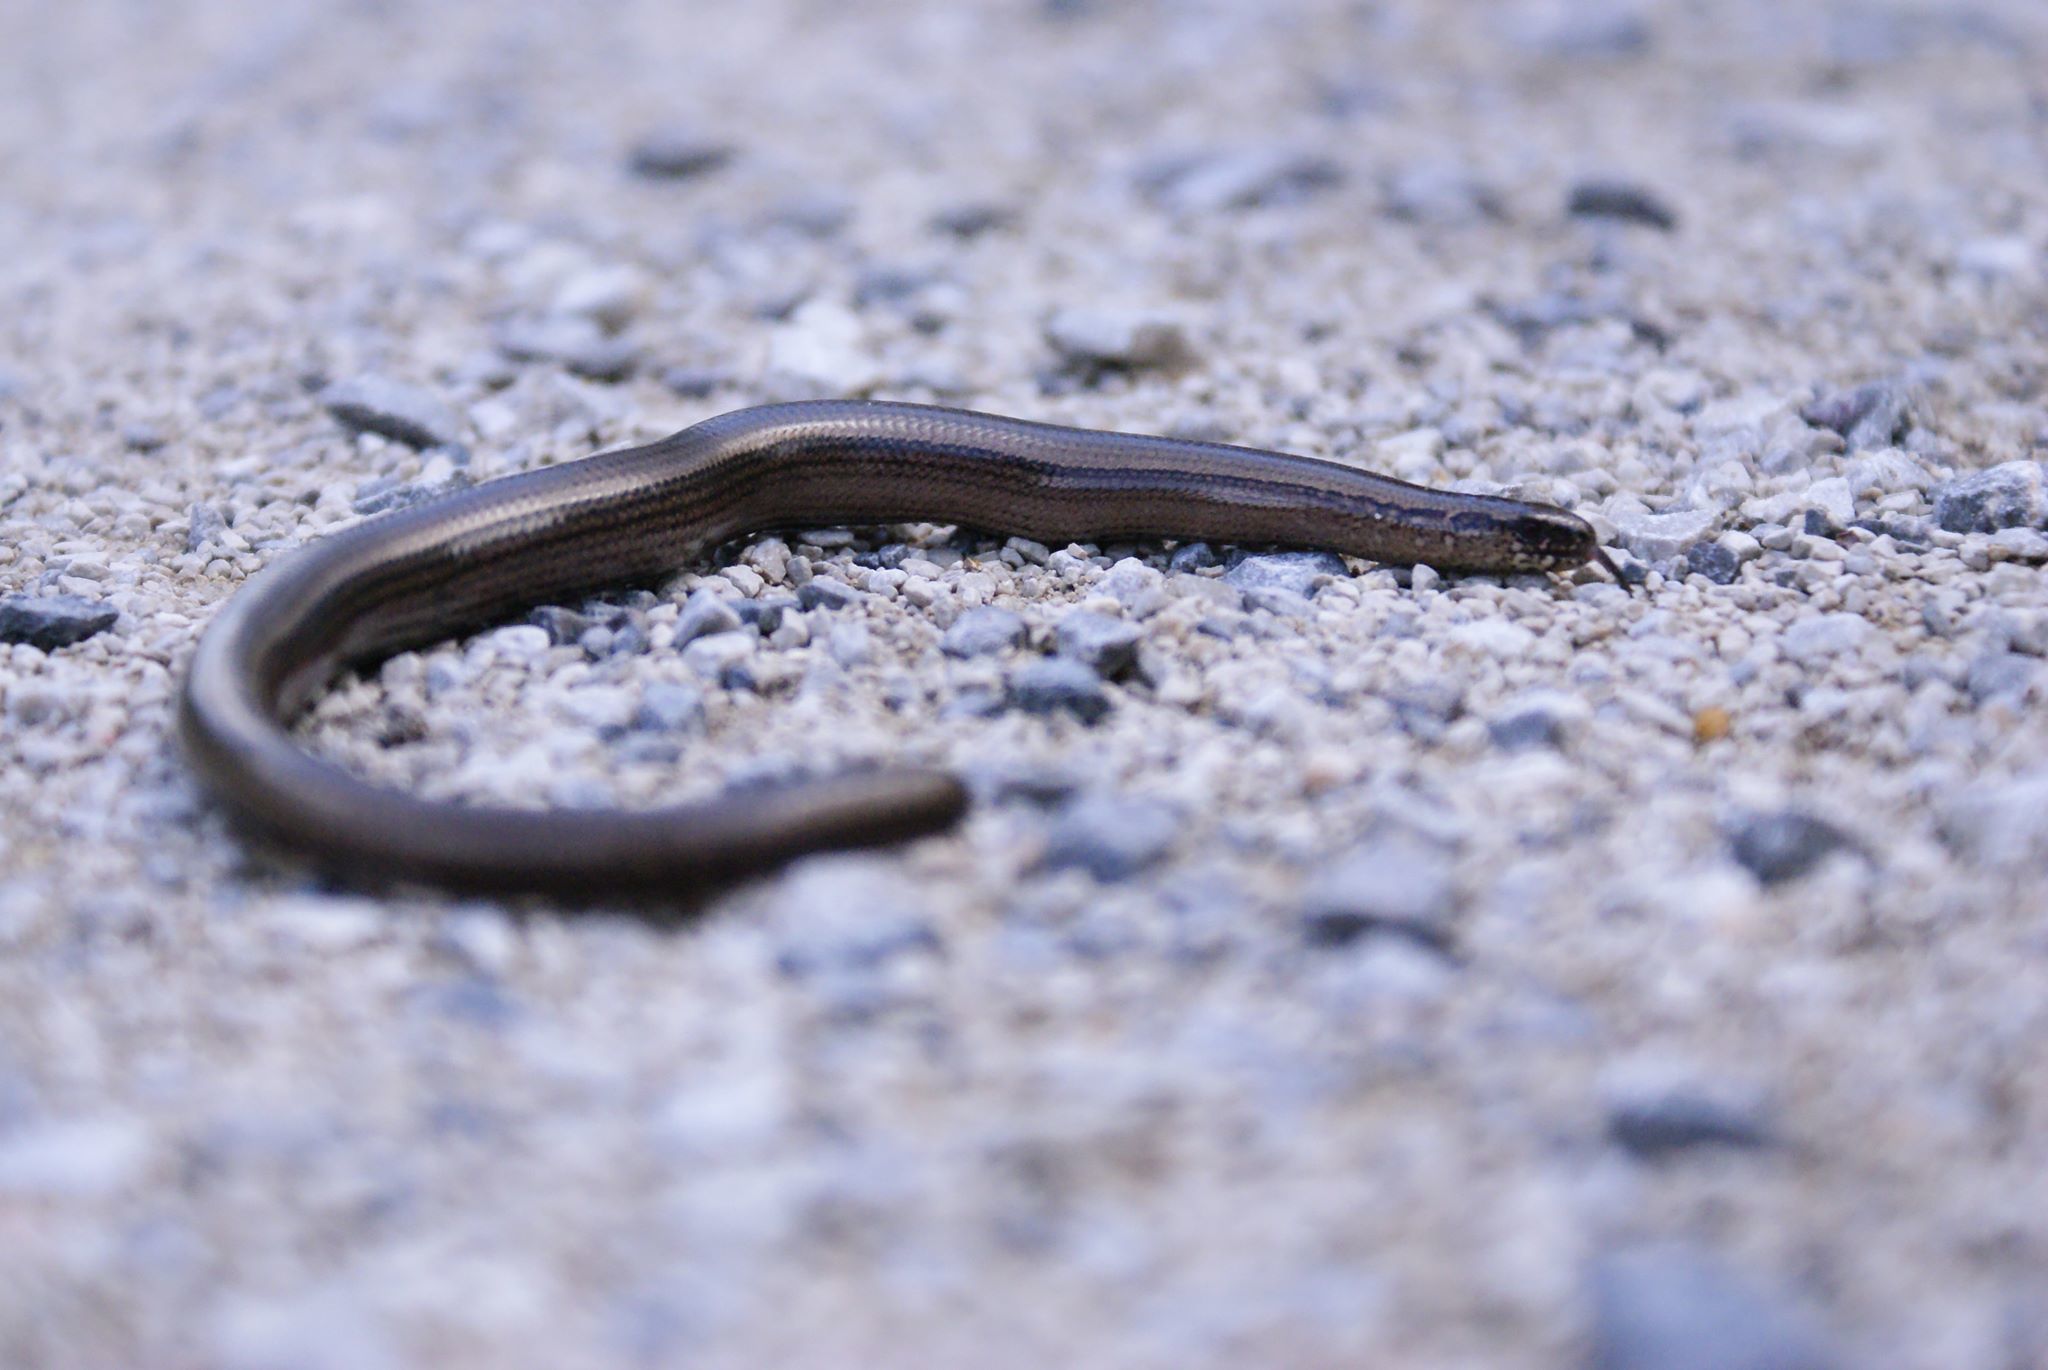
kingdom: Animalia
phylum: Chordata
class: Squamata
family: Anguidae
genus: Anguis
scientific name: Anguis fragilis
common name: Slow worm
